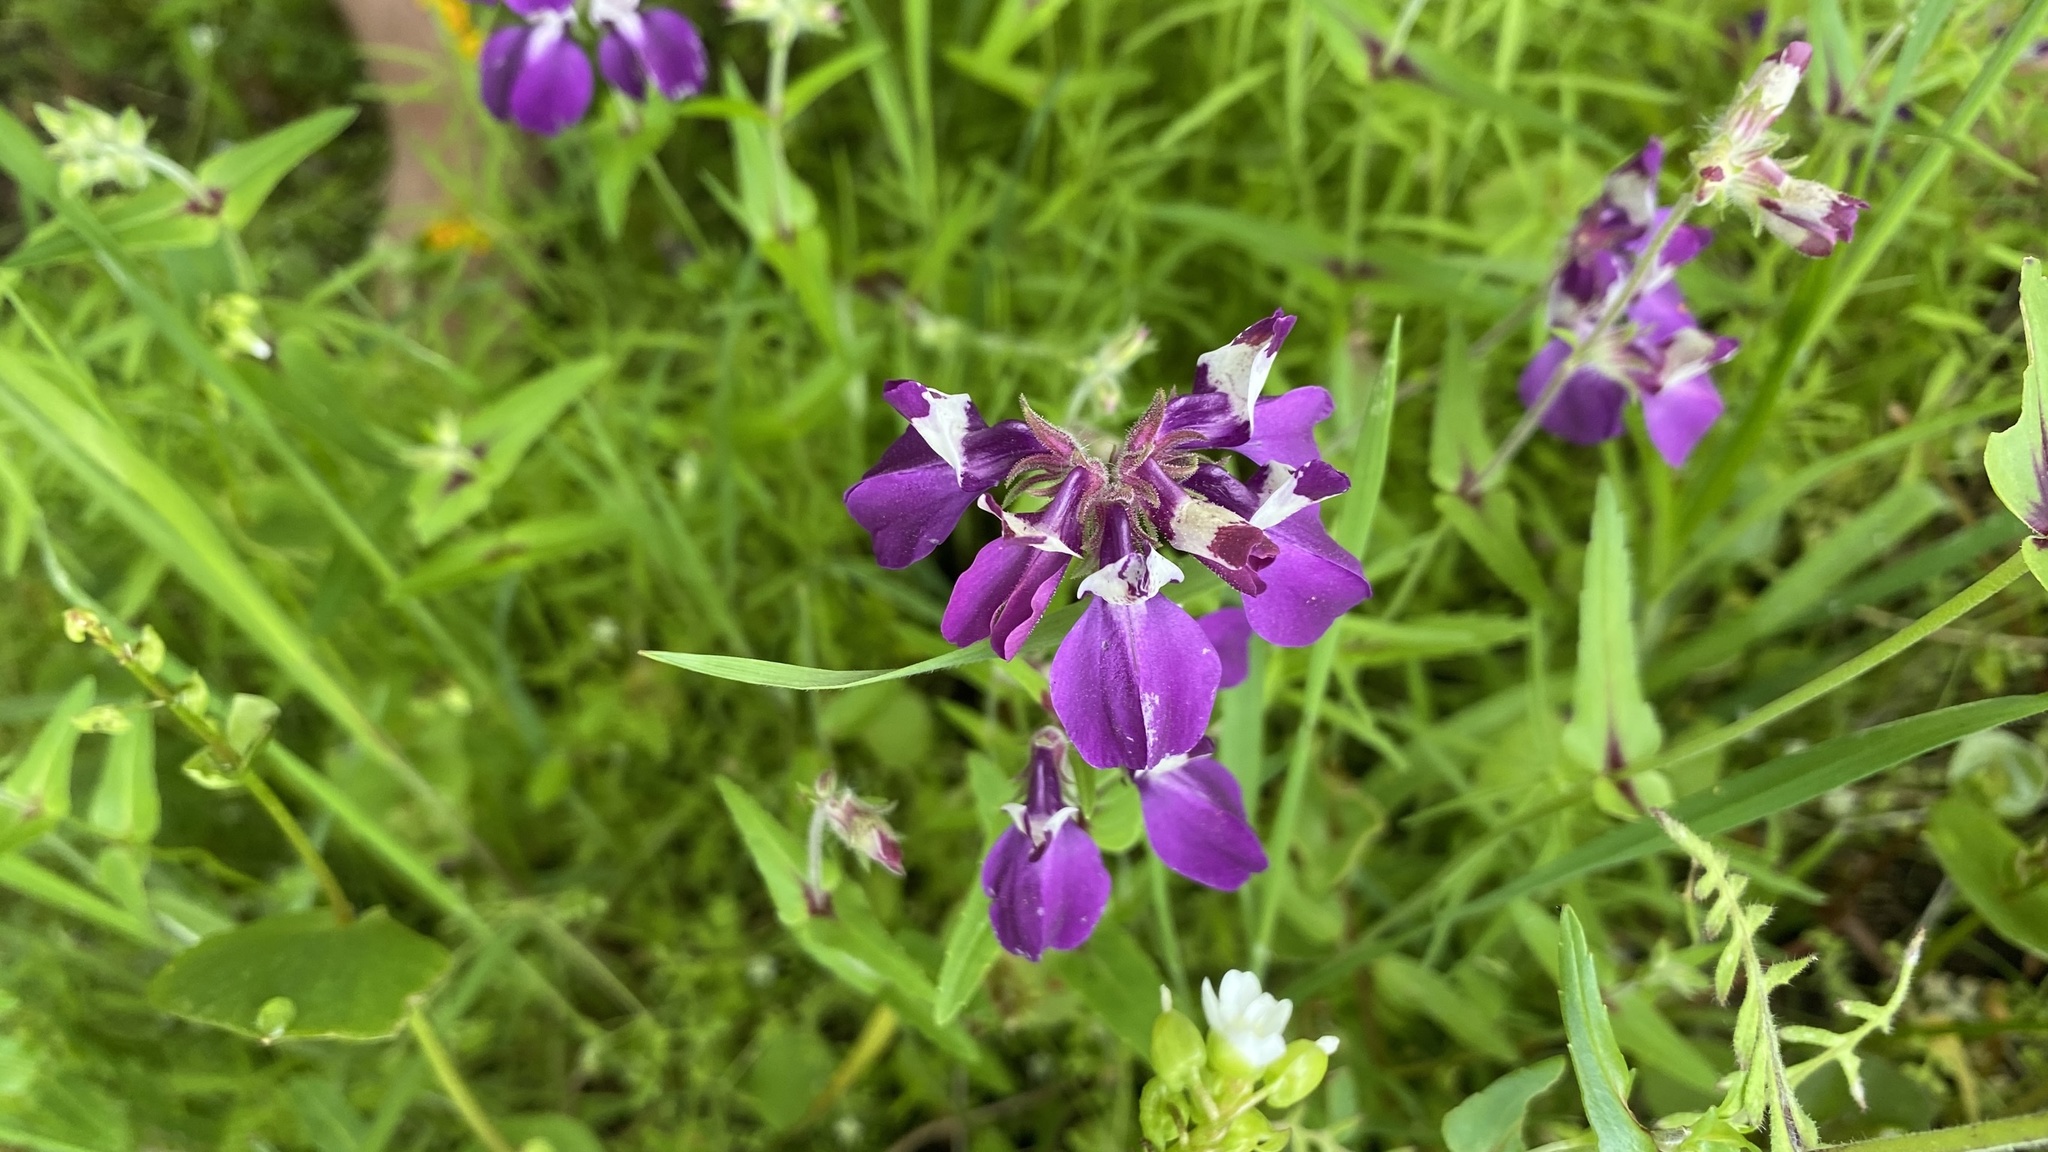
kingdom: Plantae
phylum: Tracheophyta
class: Magnoliopsida
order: Lamiales
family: Plantaginaceae
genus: Collinsia
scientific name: Collinsia heterophylla
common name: Chinese-houses
